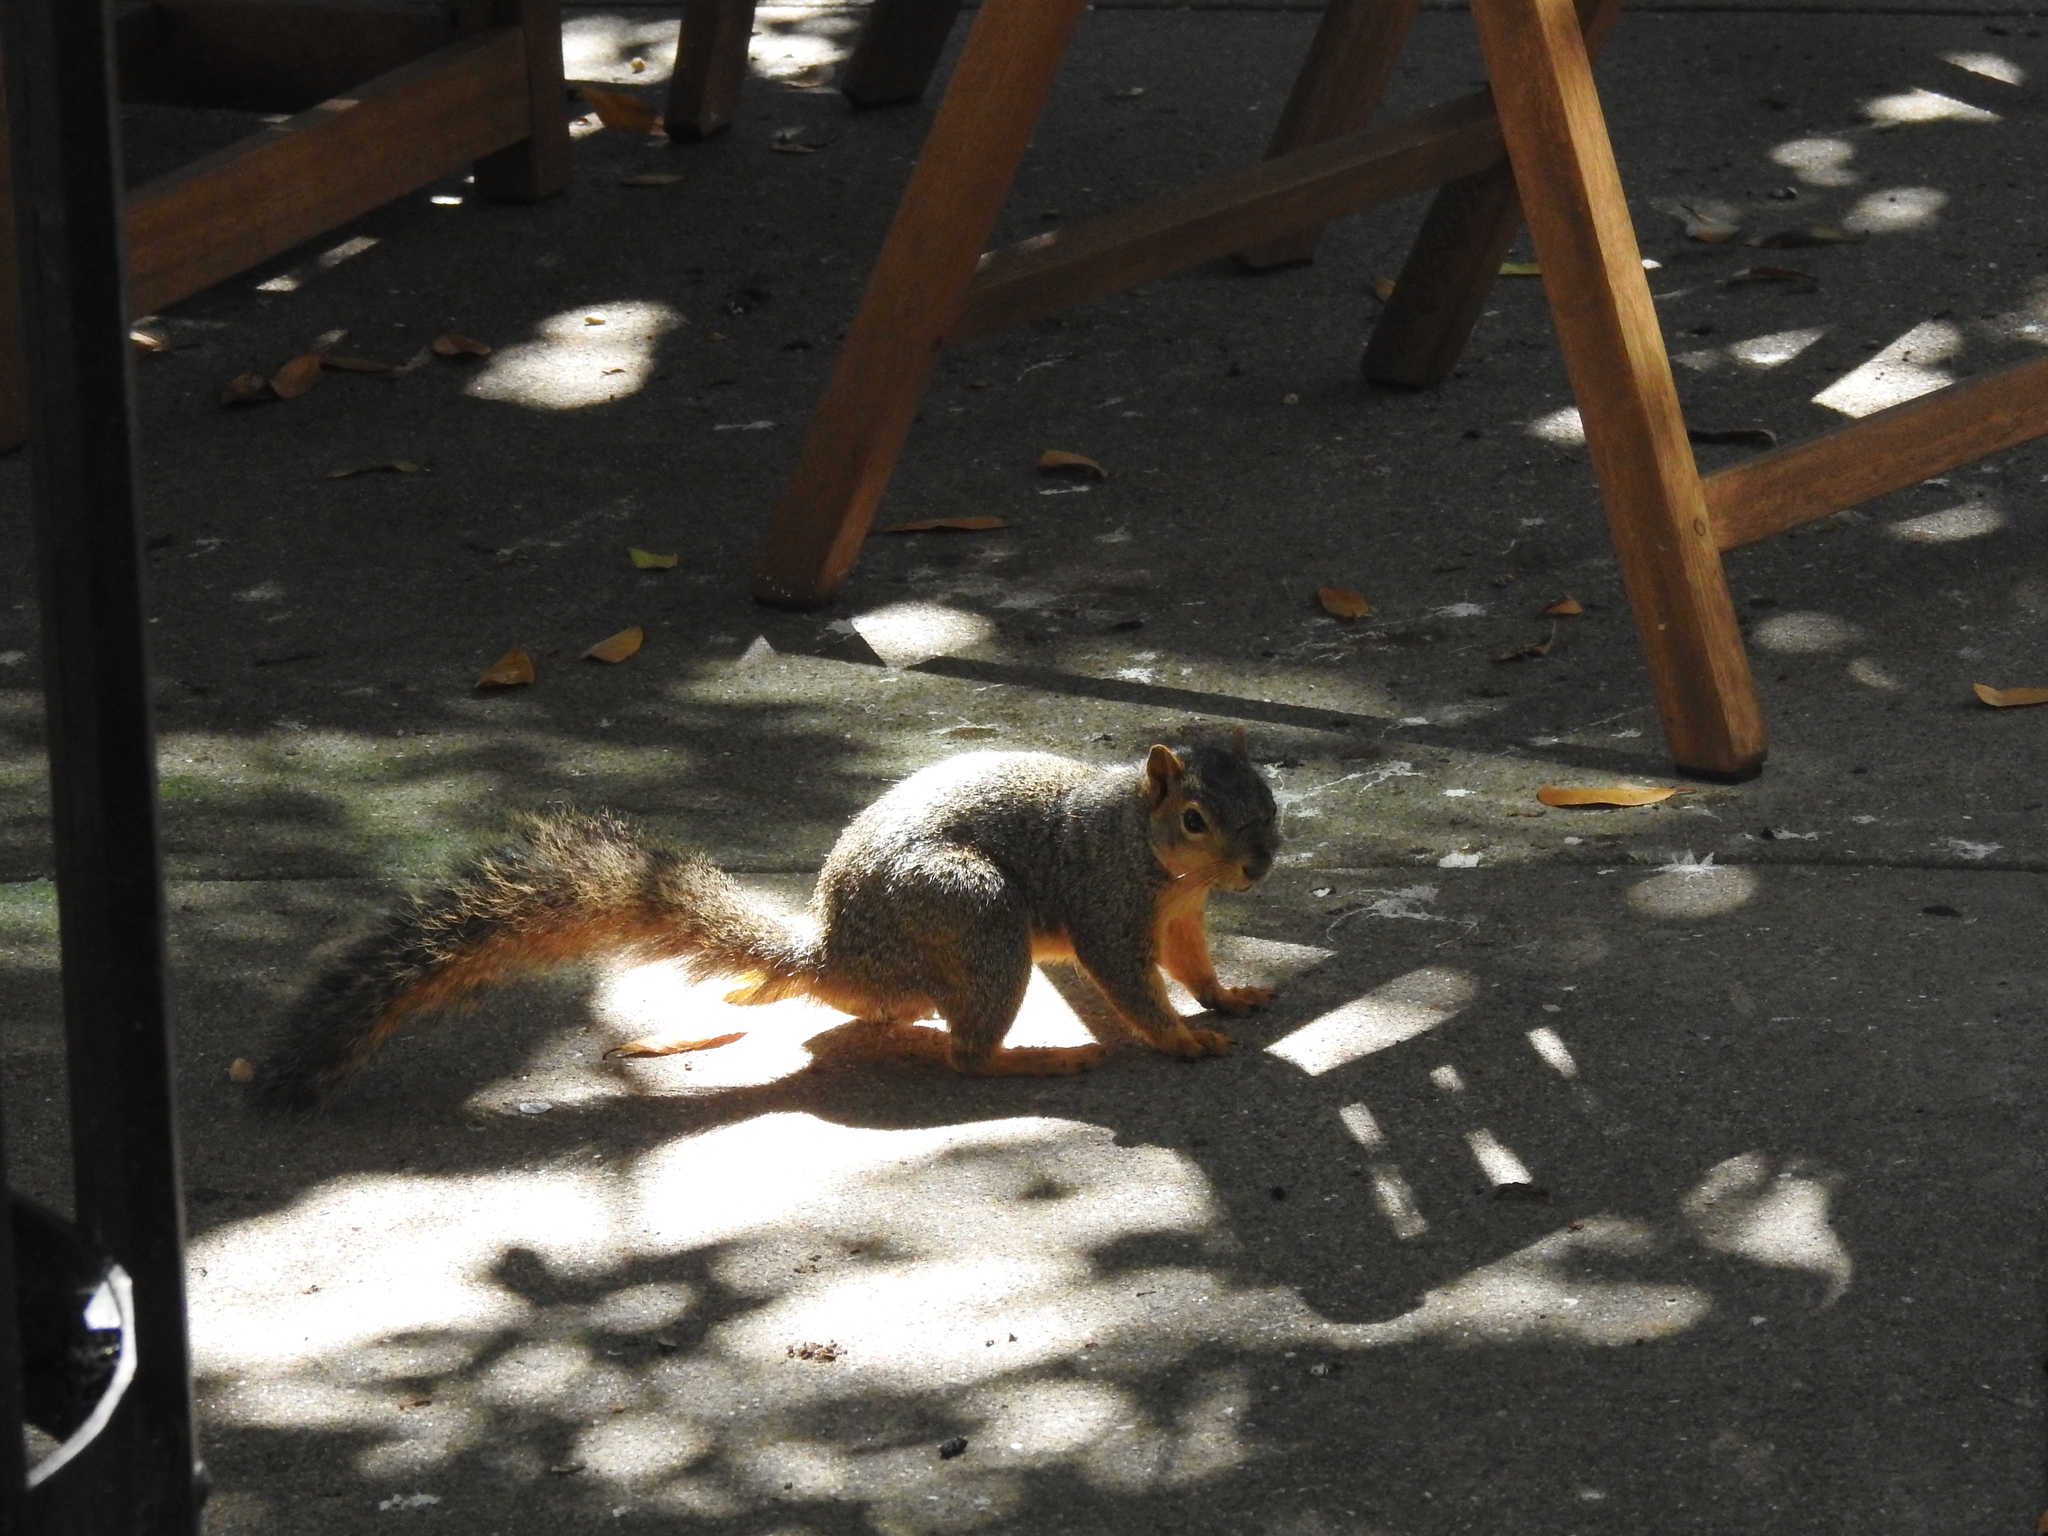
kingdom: Animalia
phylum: Chordata
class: Mammalia
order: Rodentia
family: Sciuridae
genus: Sciurus
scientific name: Sciurus niger
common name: Fox squirrel
